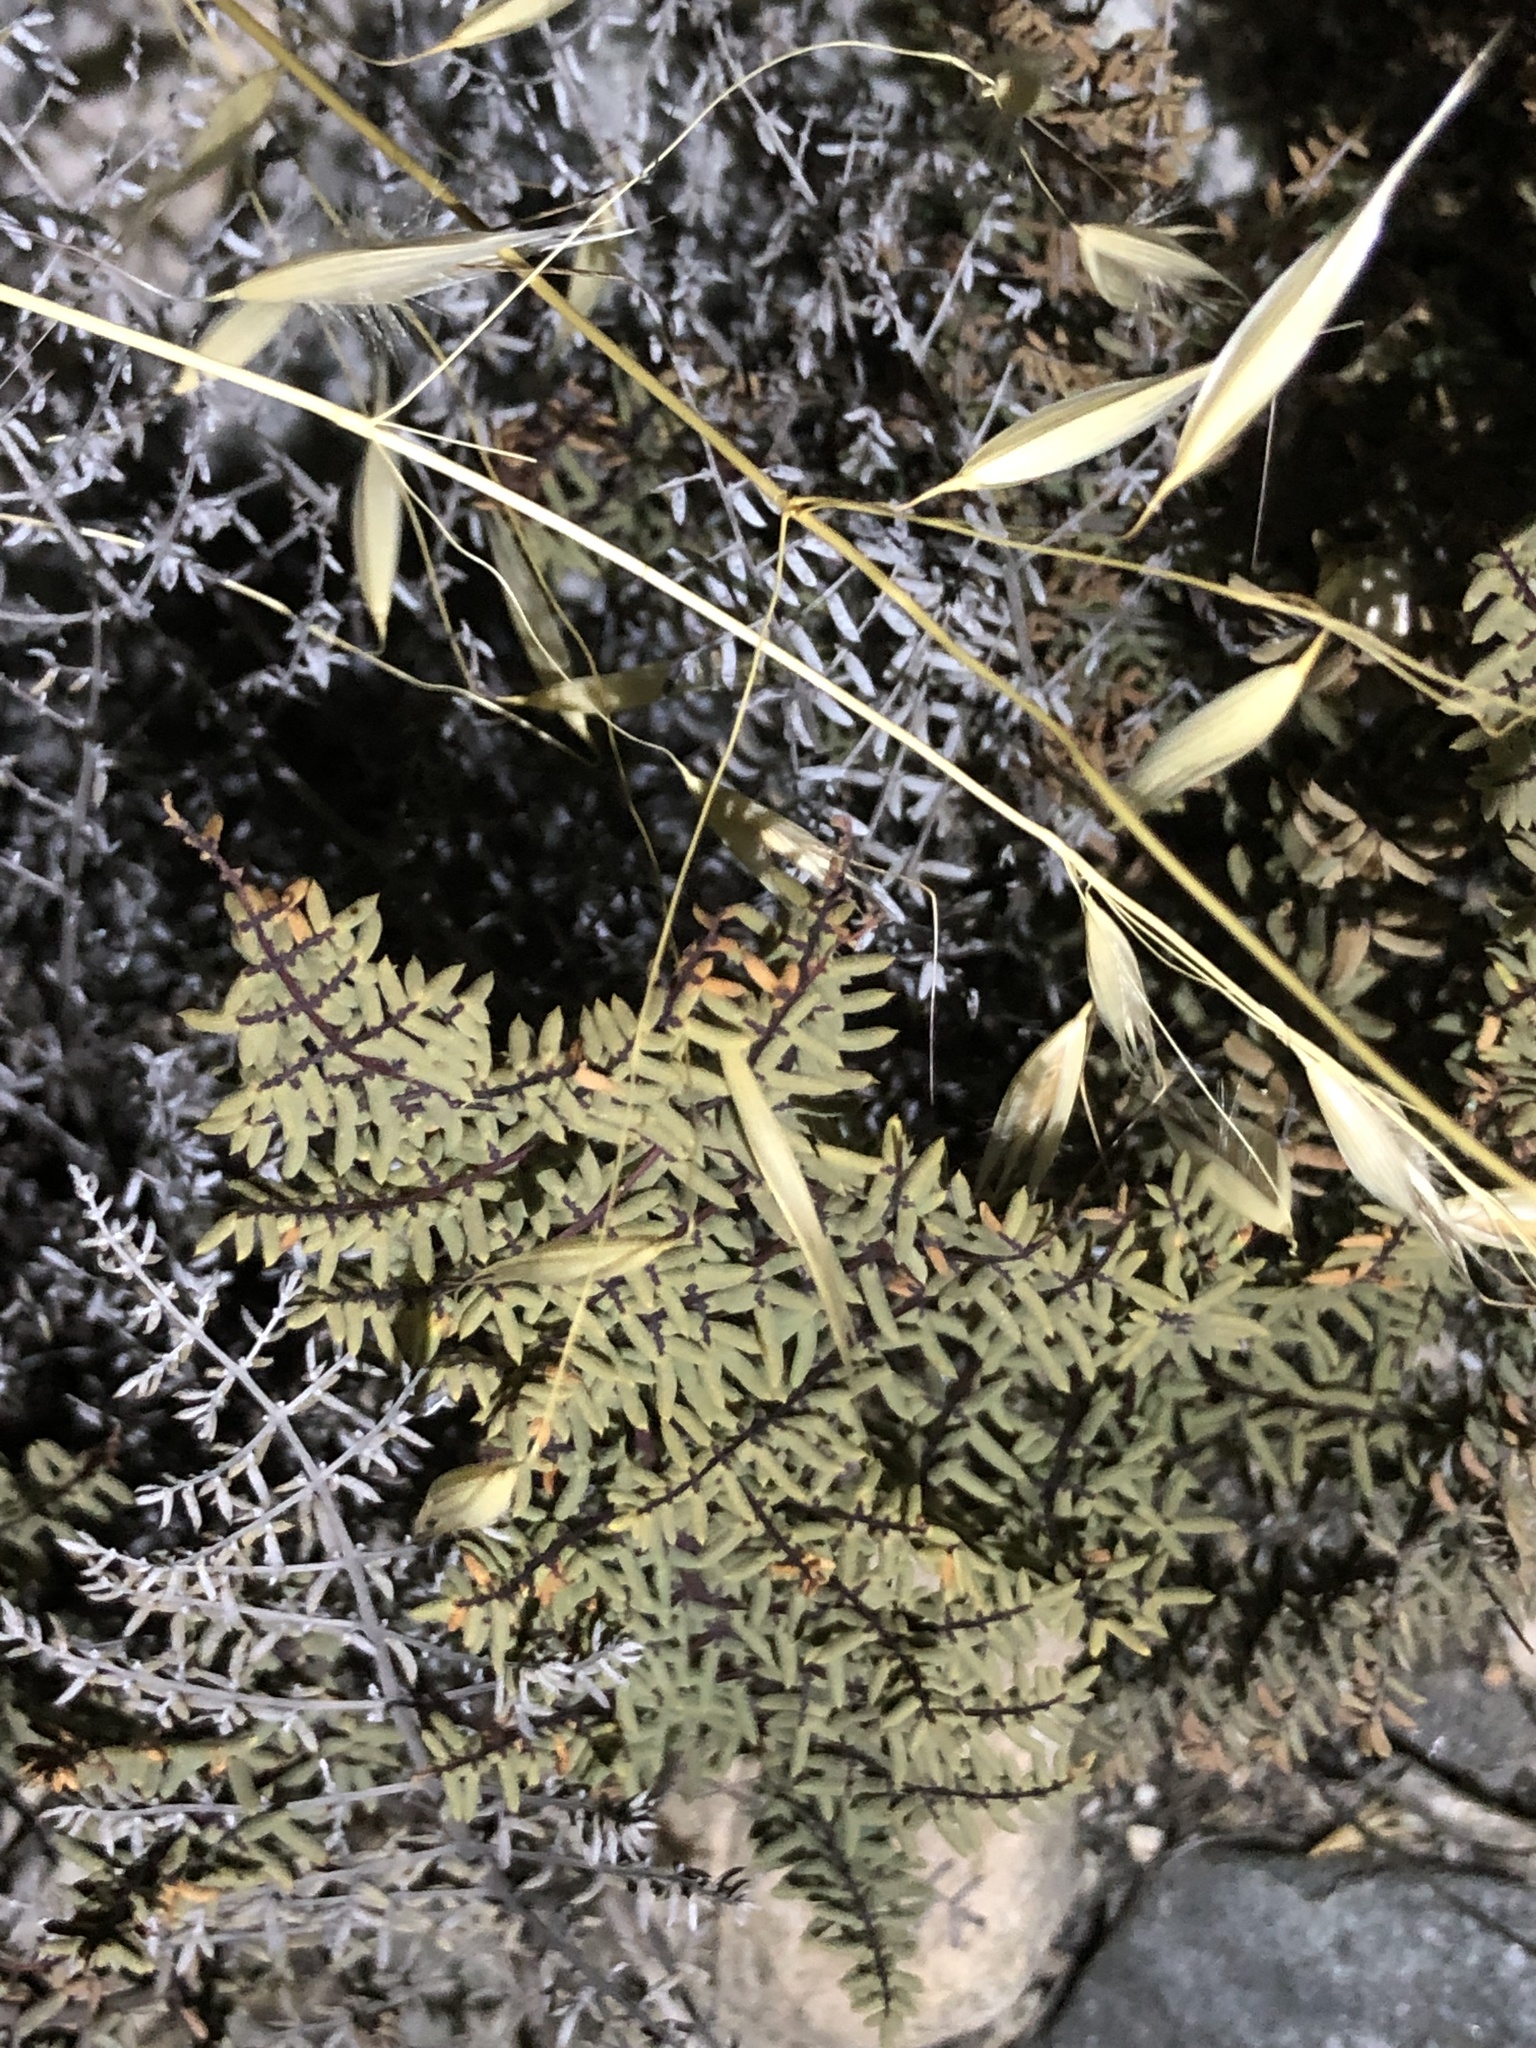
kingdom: Plantae
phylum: Tracheophyta
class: Polypodiopsida
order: Polypodiales
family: Pteridaceae
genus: Pellaea
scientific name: Pellaea mucronata
